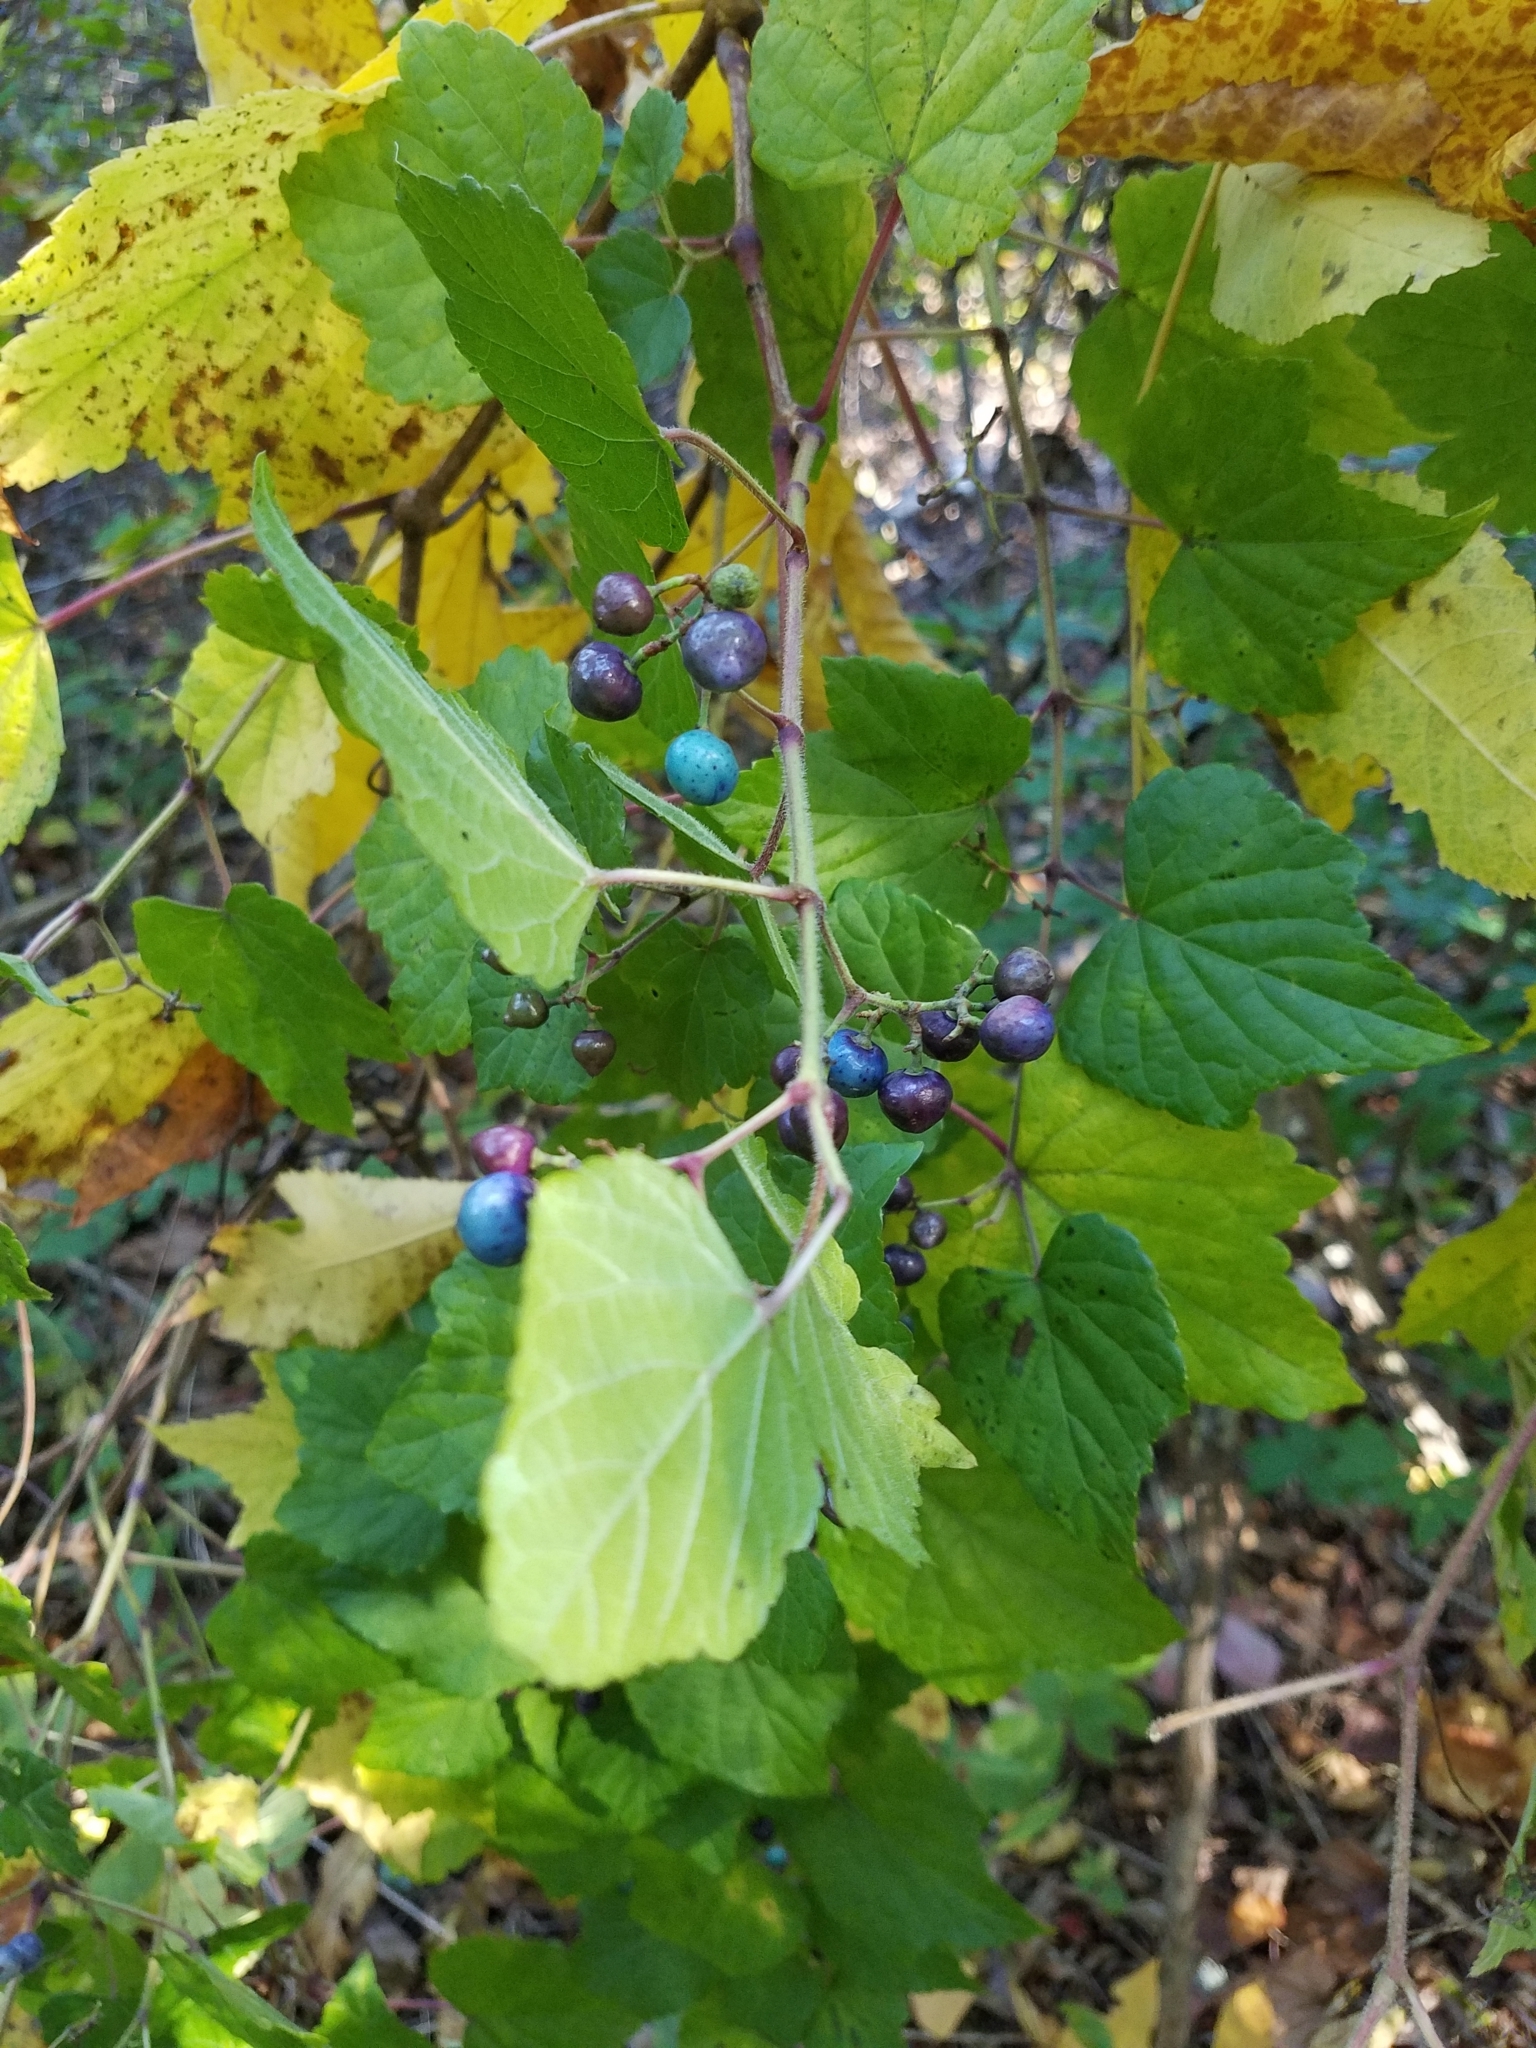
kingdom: Plantae
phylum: Tracheophyta
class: Magnoliopsida
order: Vitales
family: Vitaceae
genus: Ampelopsis
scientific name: Ampelopsis glandulosa
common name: Amur peppervine
